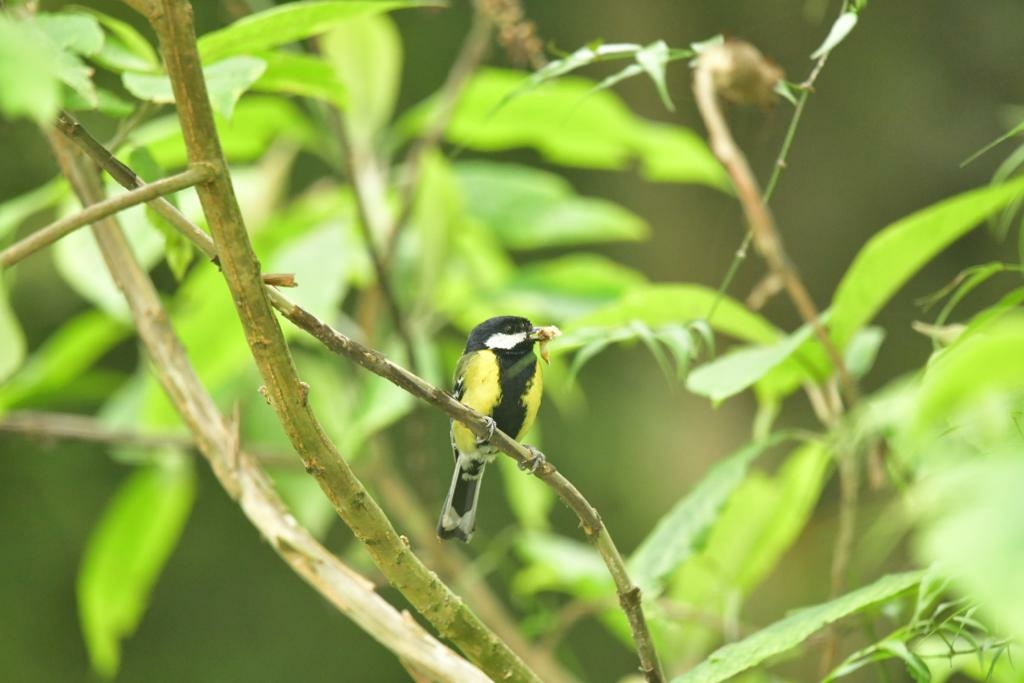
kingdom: Animalia
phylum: Chordata
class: Aves
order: Passeriformes
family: Paridae
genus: Parus
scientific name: Parus monticolus
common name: Green-backed tit
